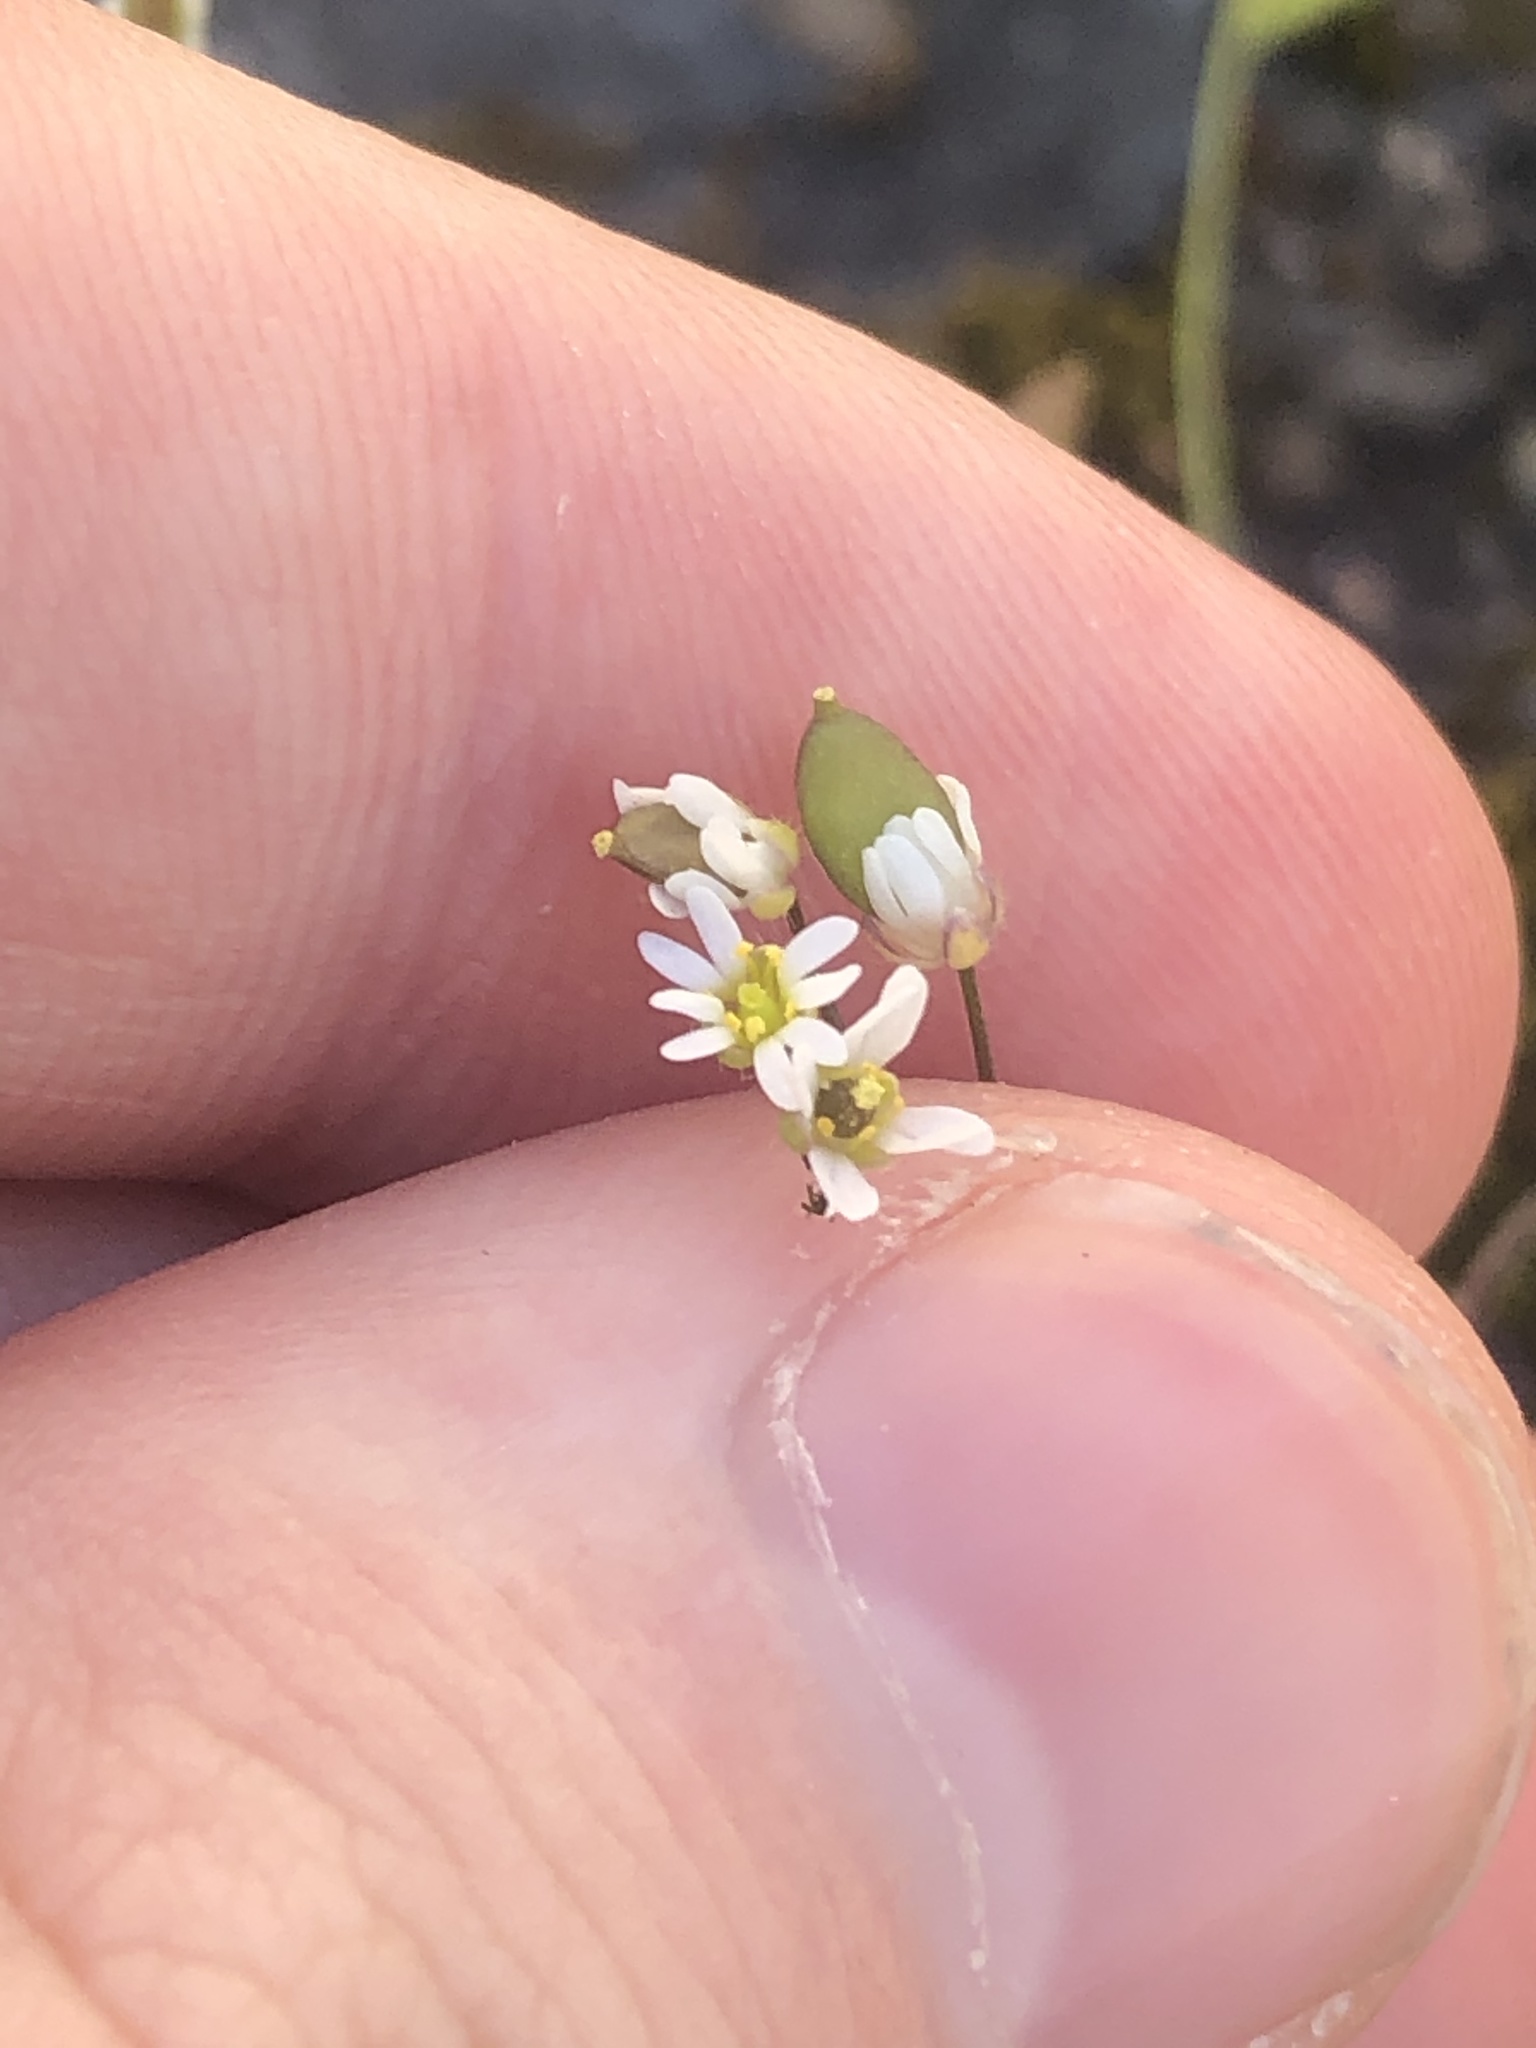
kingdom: Plantae
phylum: Tracheophyta
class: Magnoliopsida
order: Brassicales
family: Brassicaceae
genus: Draba
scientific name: Draba verna
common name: Spring draba
